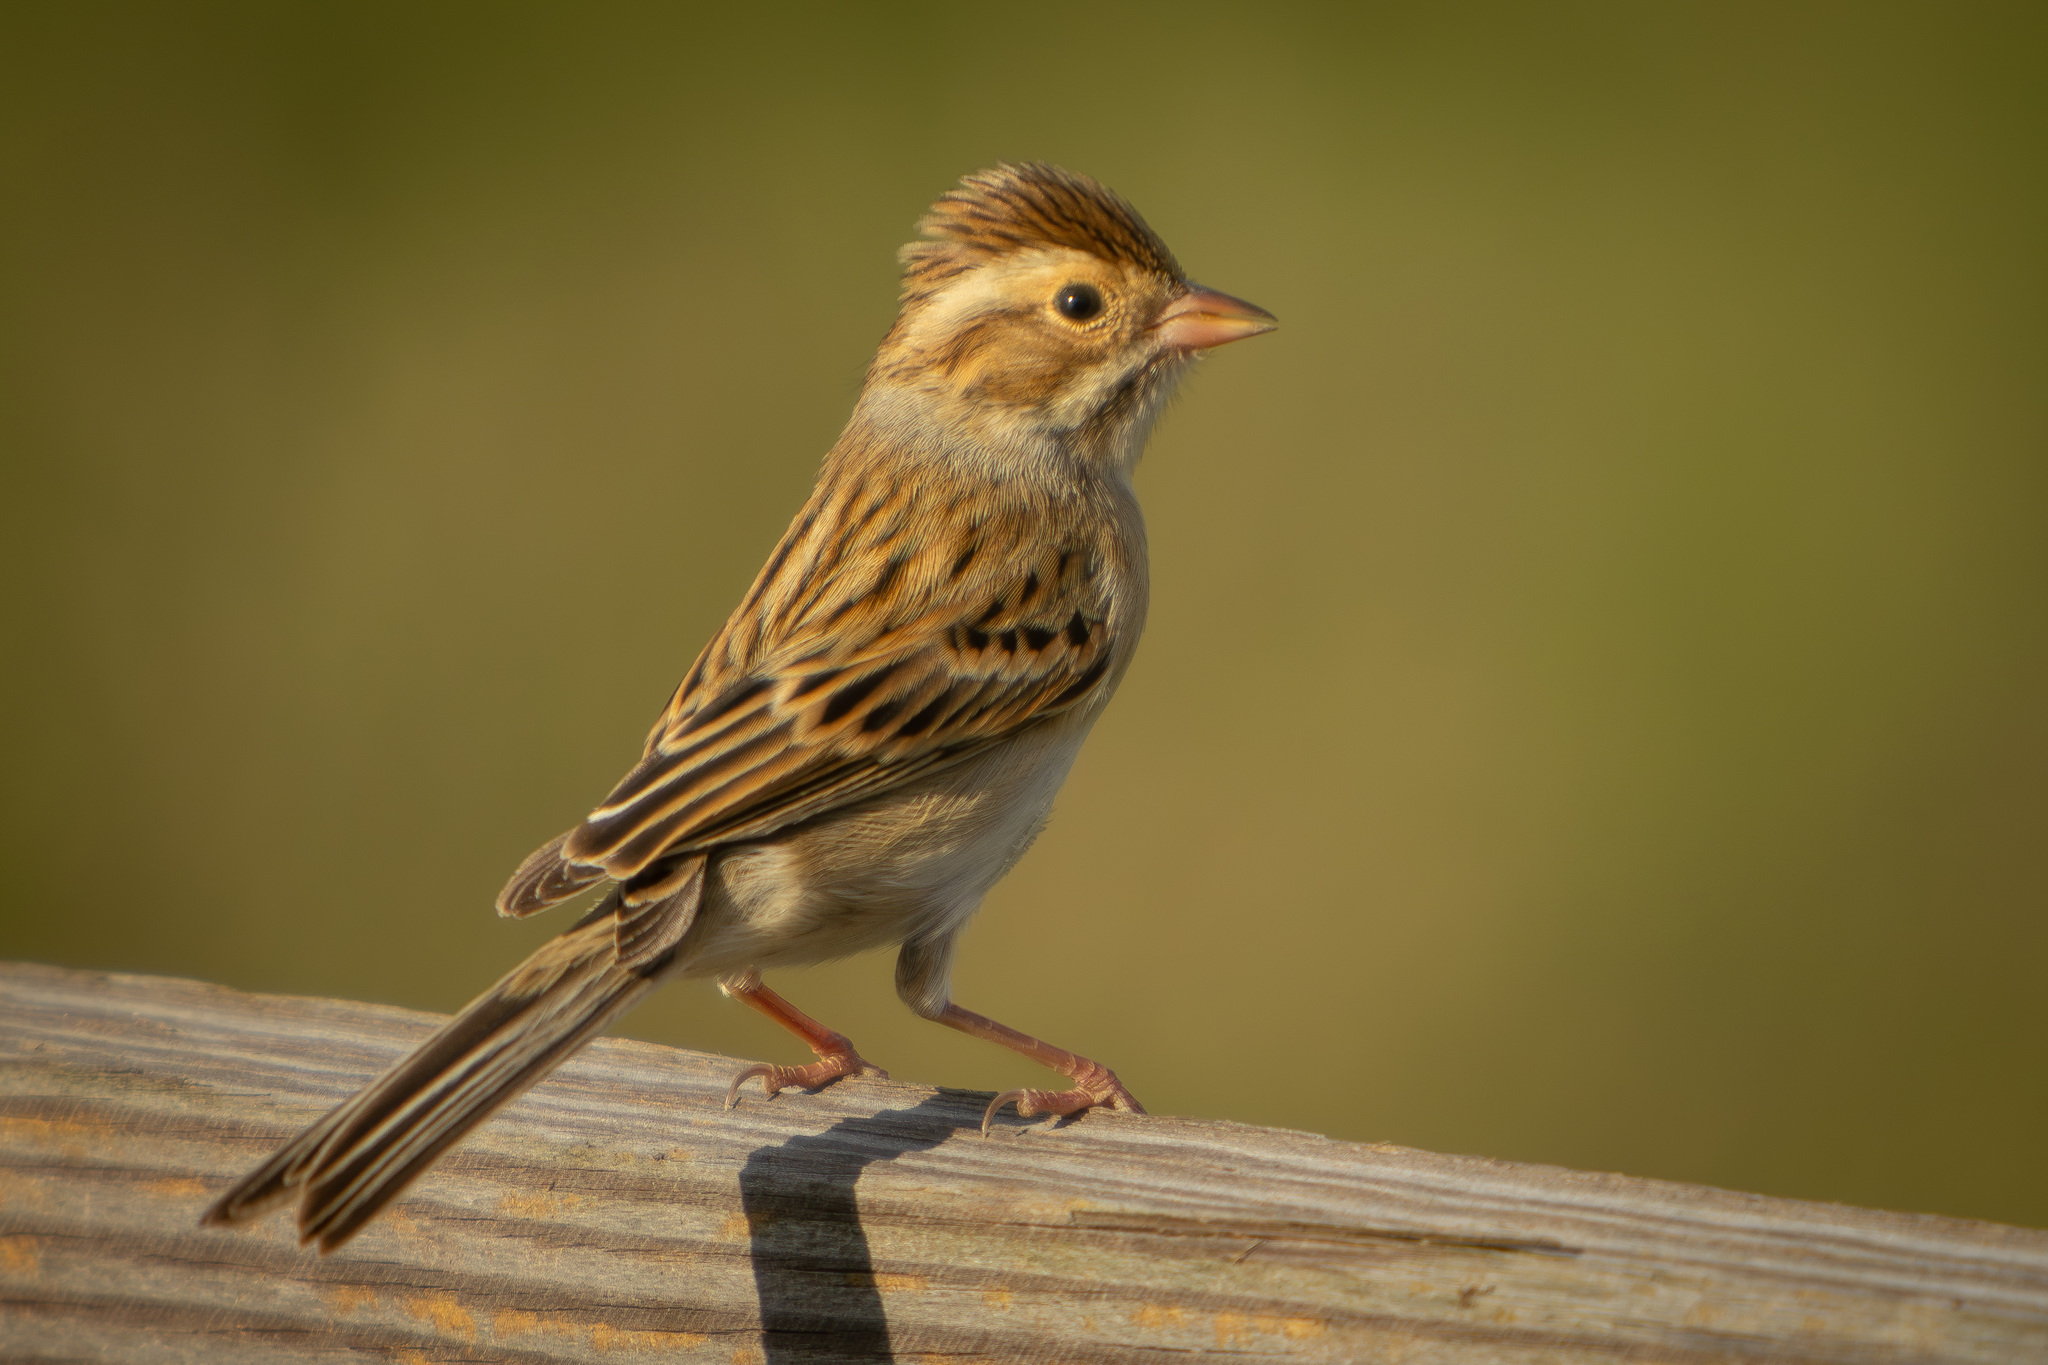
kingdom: Animalia
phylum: Chordata
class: Aves
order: Passeriformes
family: Passerellidae
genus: Spizella
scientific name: Spizella pallida
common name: Clay-colored sparrow
